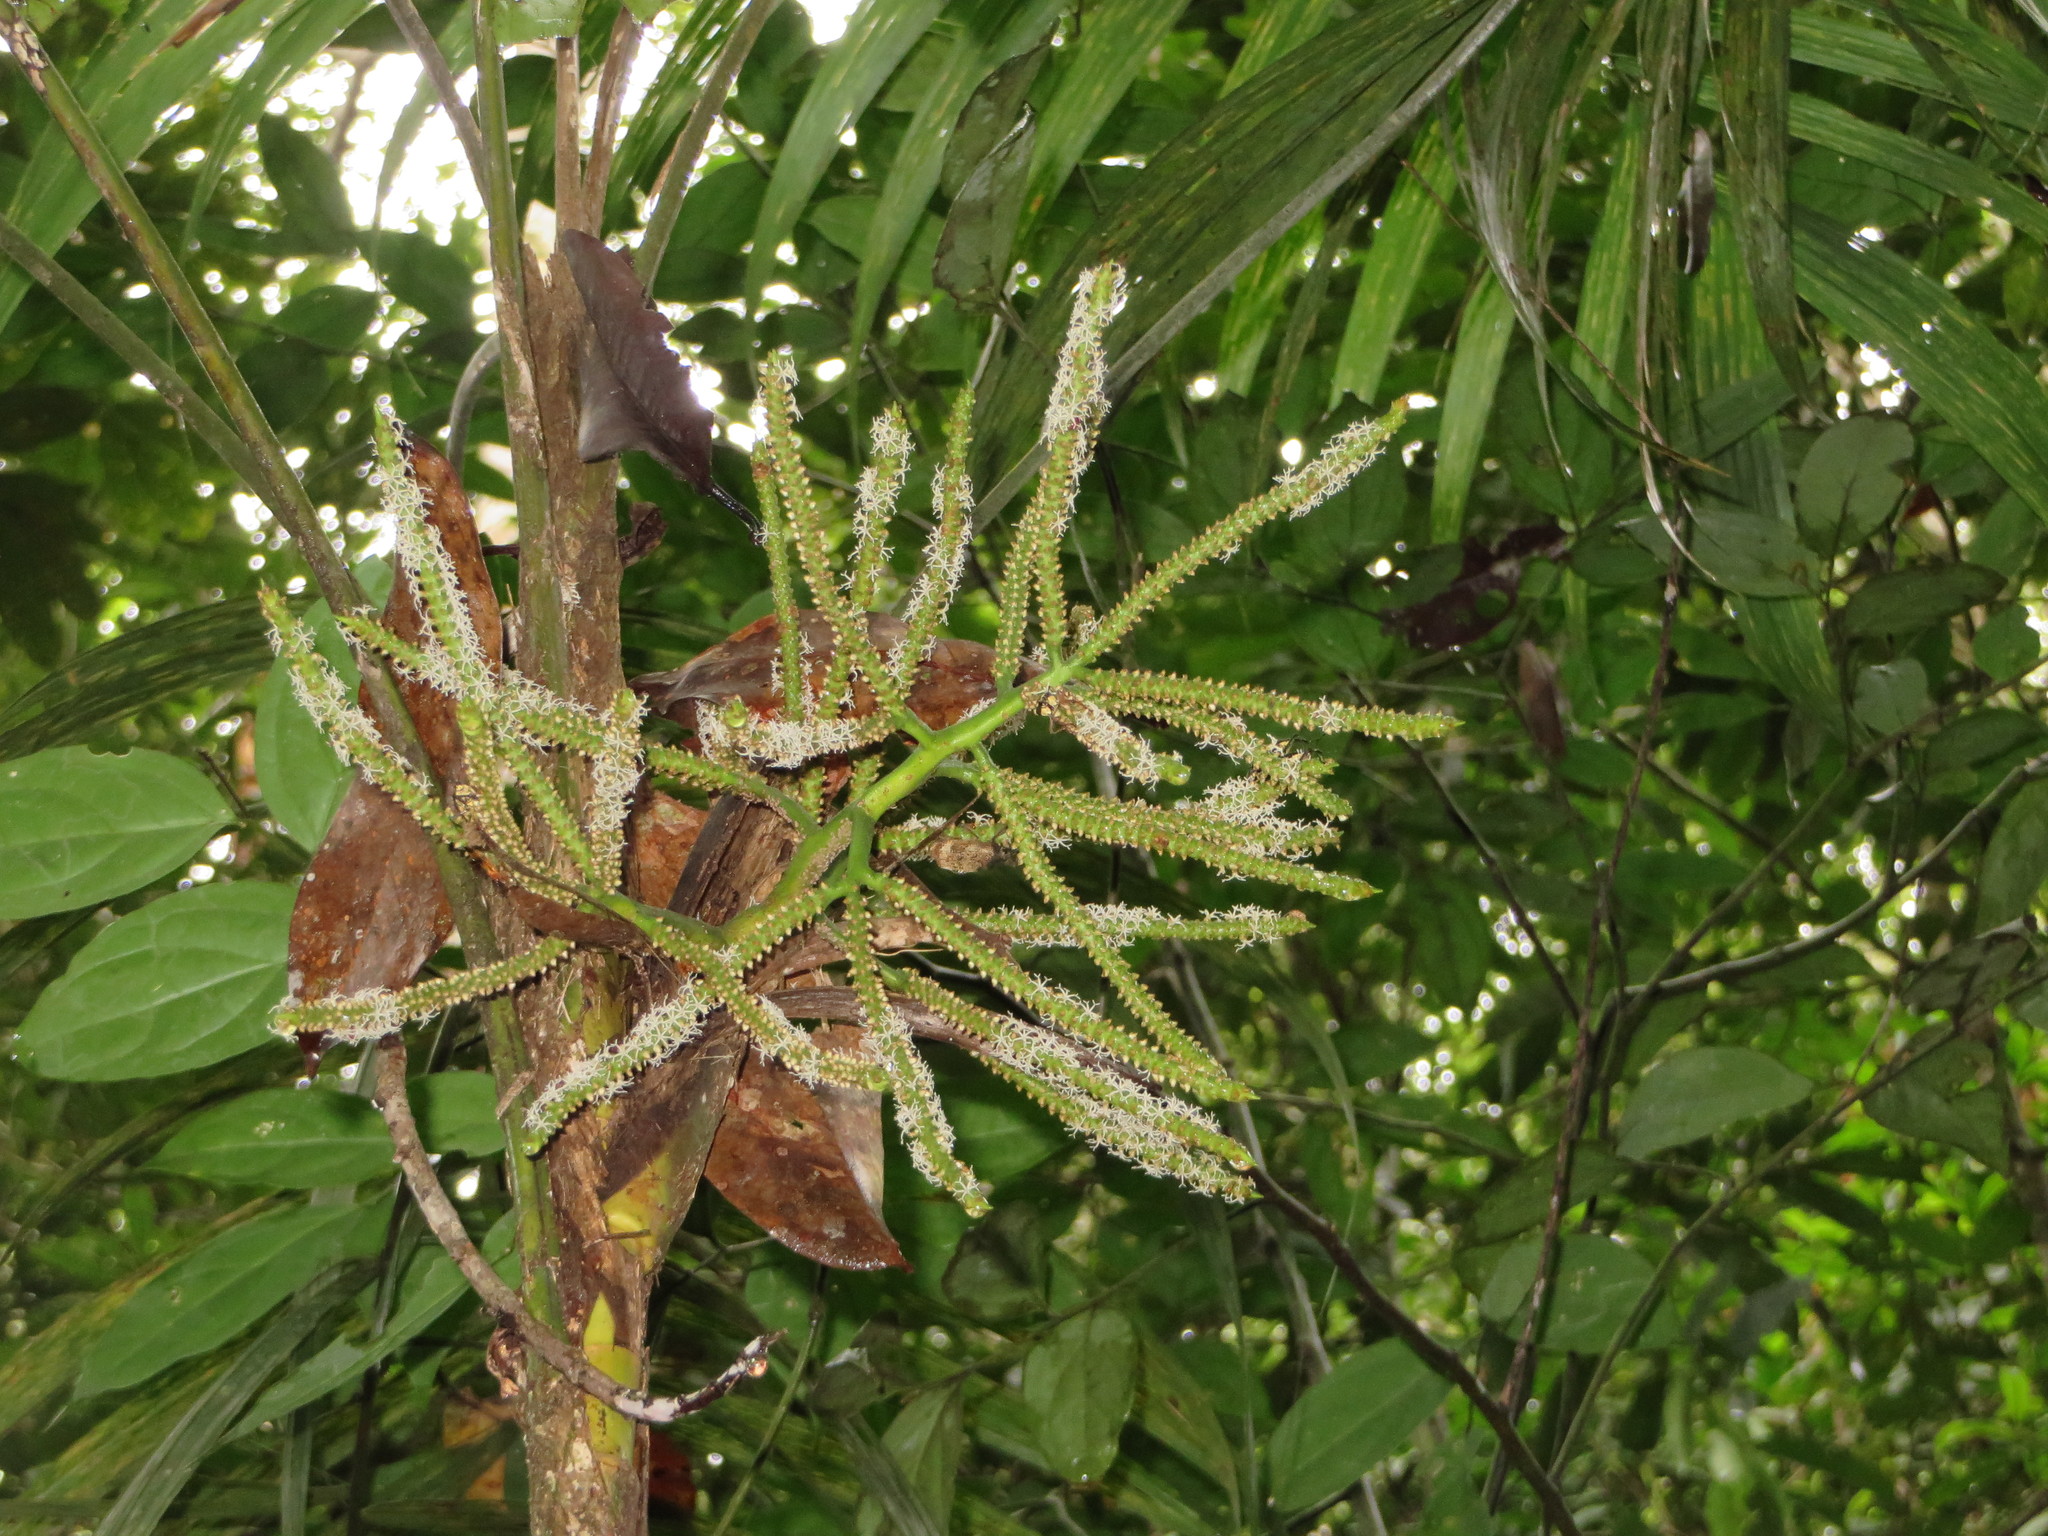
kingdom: Plantae
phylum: Tracheophyta
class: Liliopsida
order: Arecales
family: Arecaceae
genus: Geonoma
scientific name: Geonoma maxima
